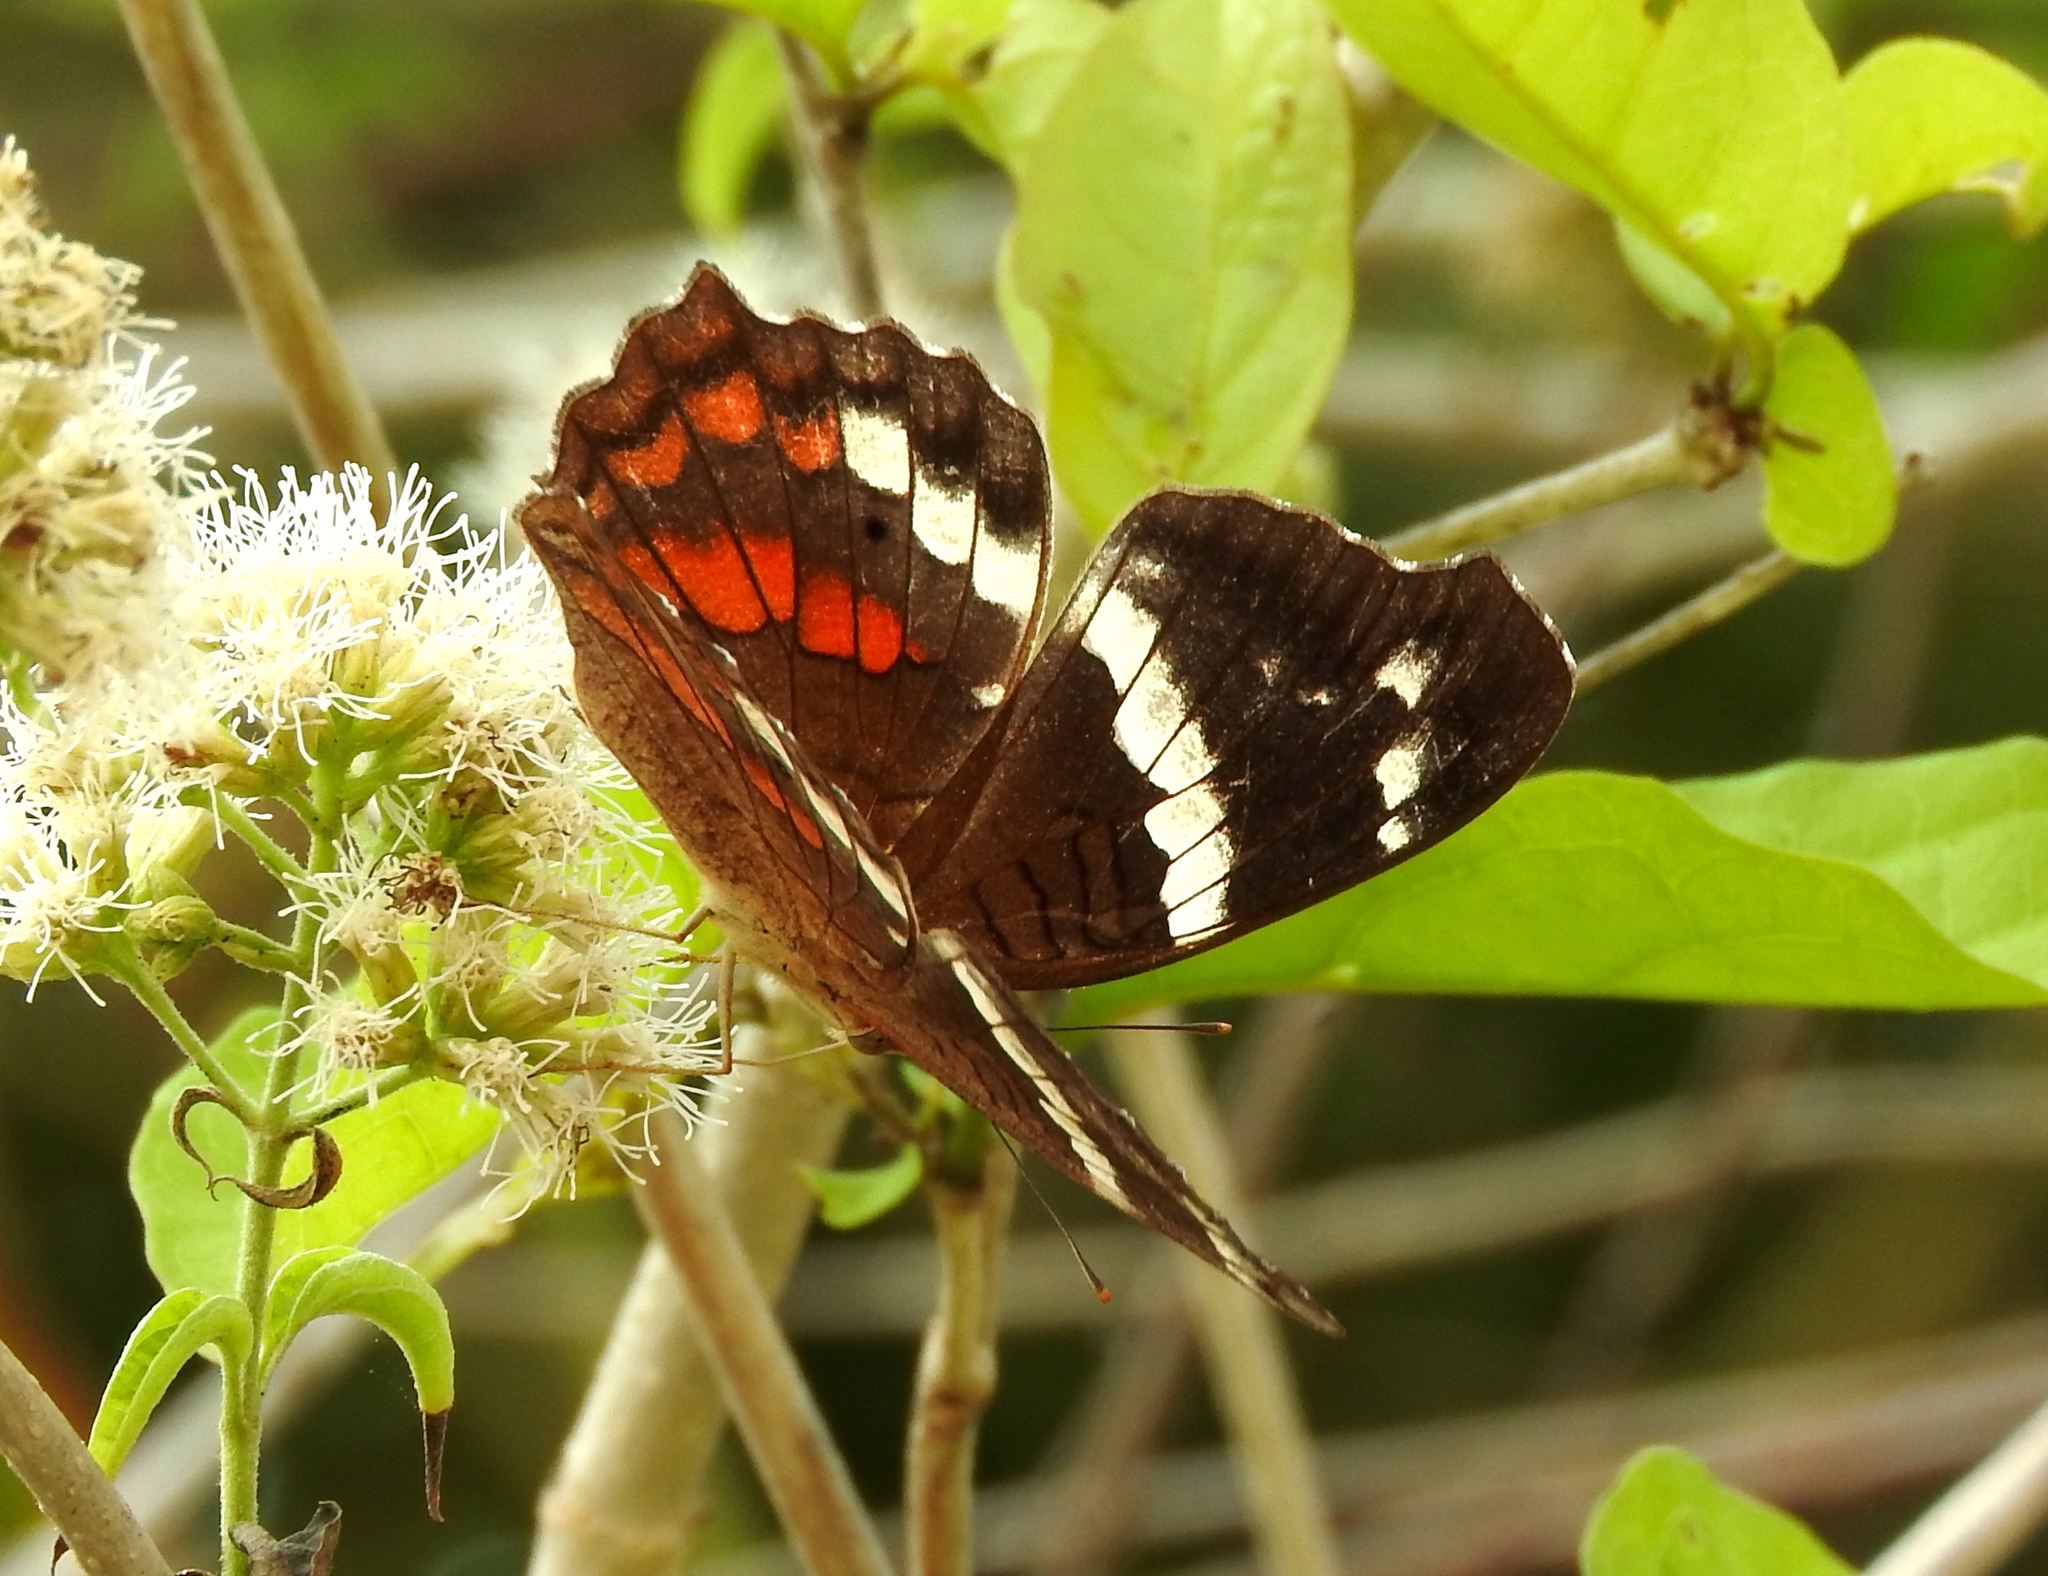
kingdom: Animalia
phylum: Arthropoda
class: Insecta
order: Lepidoptera
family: Nymphalidae
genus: Anartia
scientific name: Anartia fatima
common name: Banded peacock
